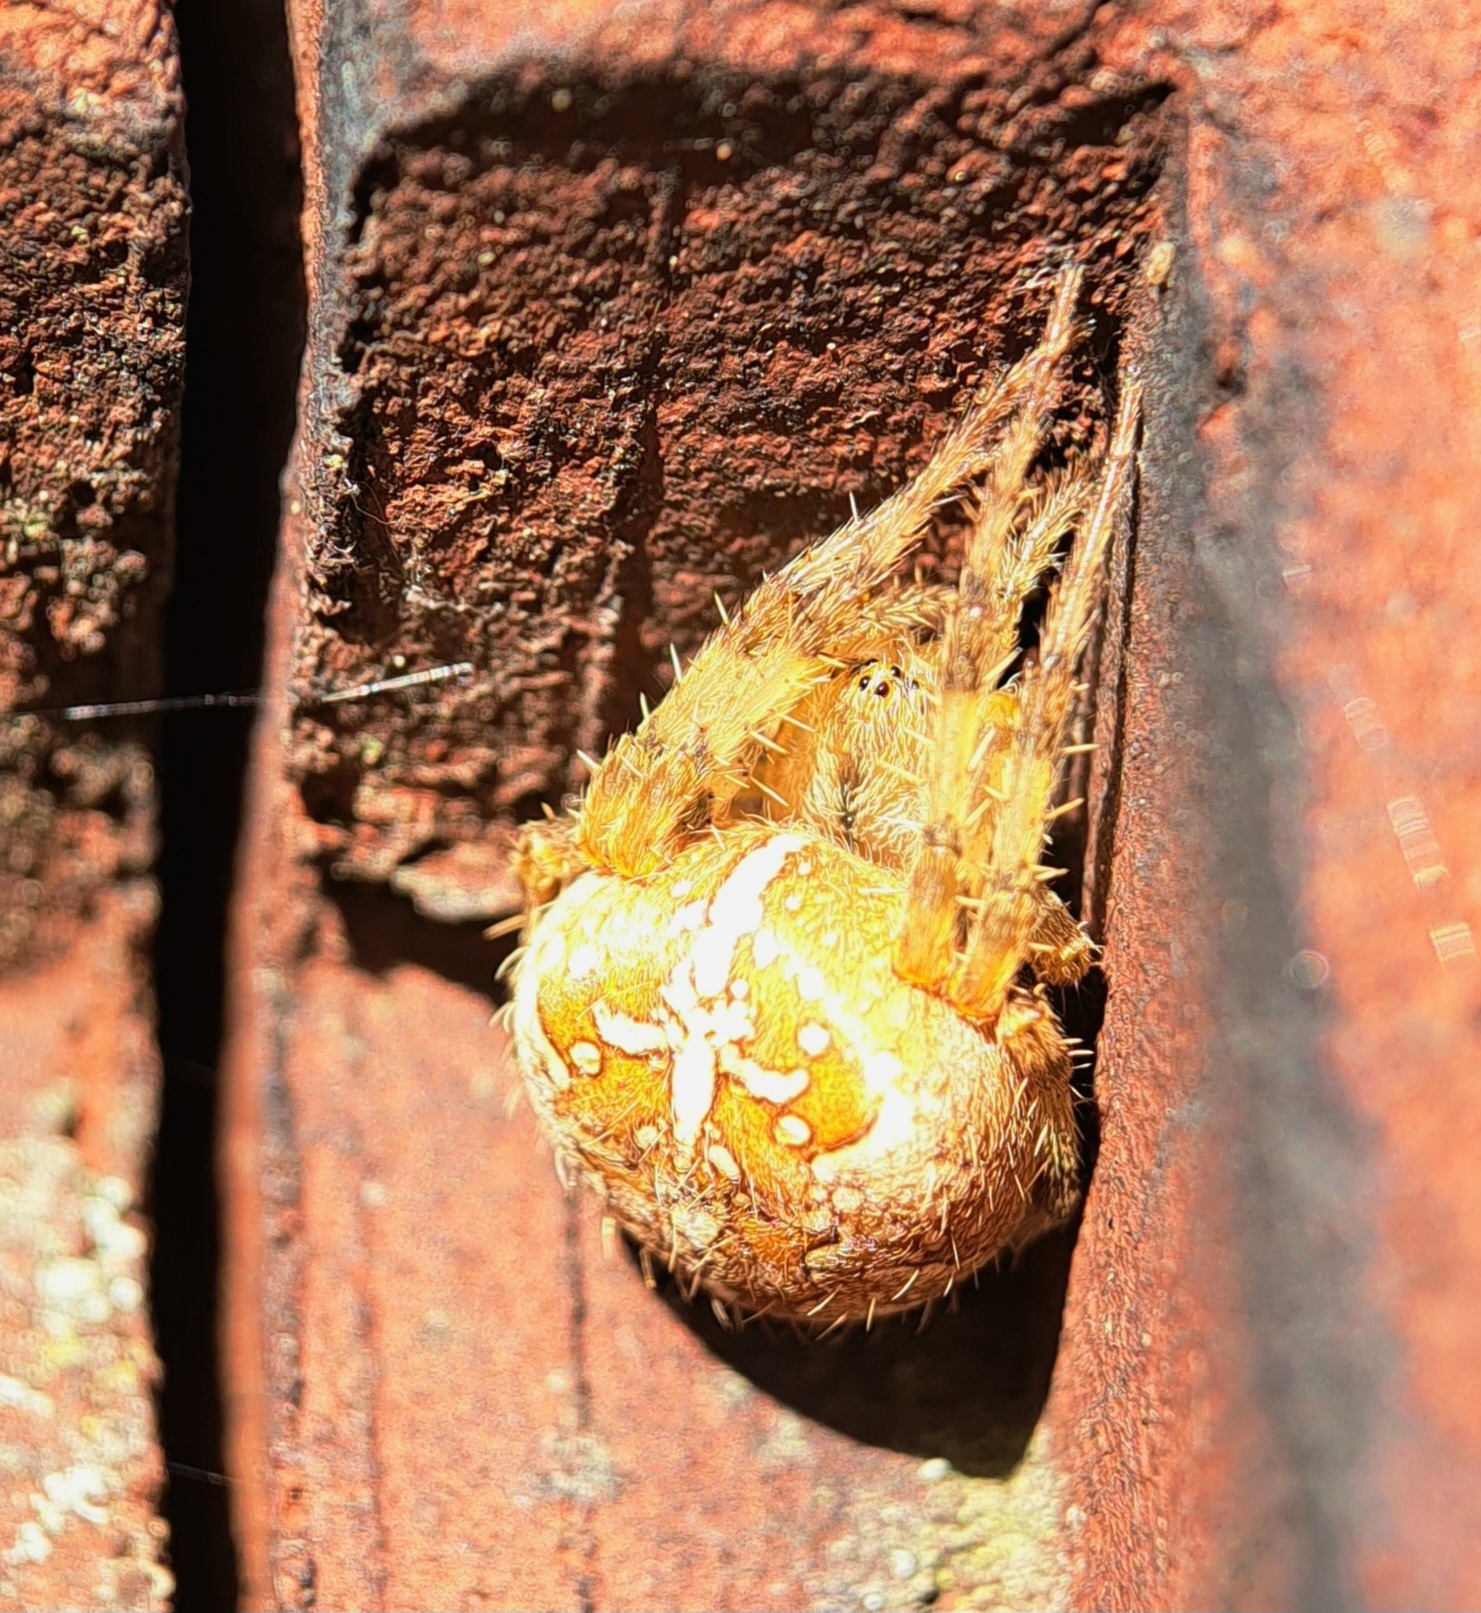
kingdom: Animalia
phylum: Arthropoda
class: Arachnida
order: Araneae
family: Araneidae
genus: Araneus
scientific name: Araneus diadematus
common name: Cross orbweaver
